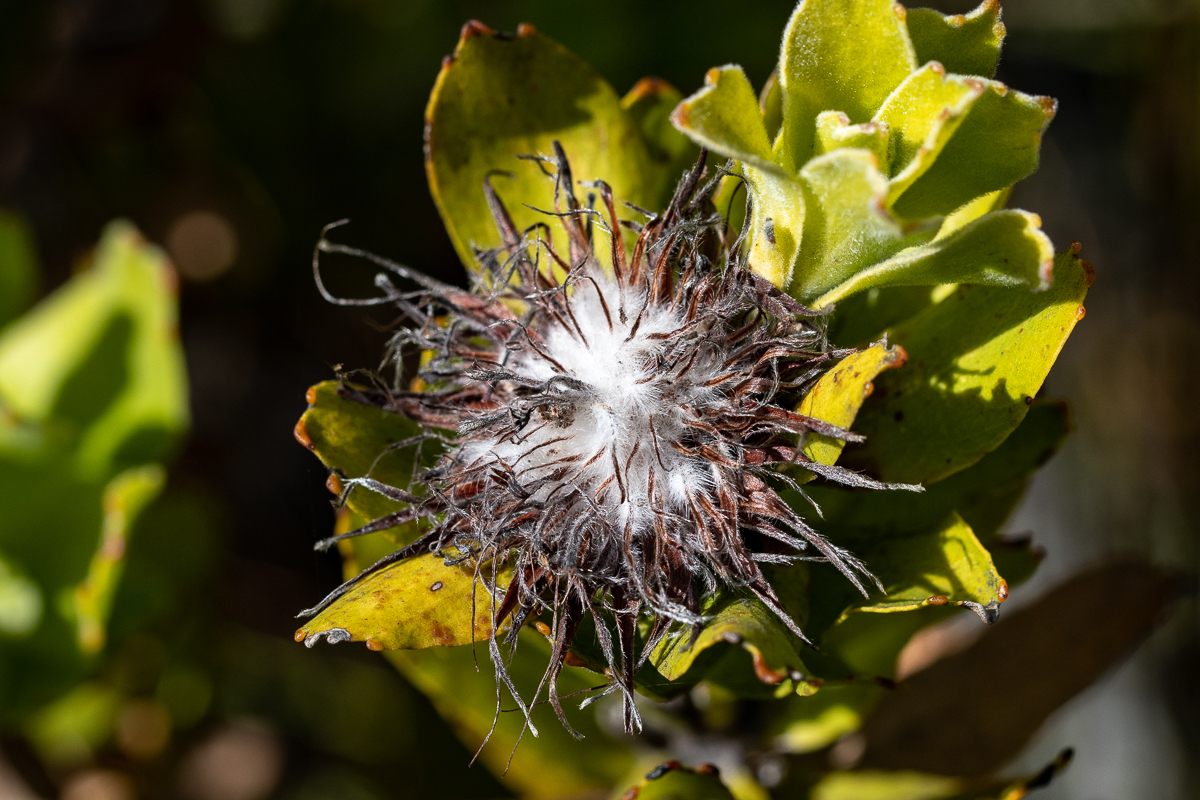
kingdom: Plantae
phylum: Tracheophyta
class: Magnoliopsida
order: Proteales
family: Proteaceae
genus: Leucospermum
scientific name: Leucospermum oleifolium
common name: Matches
